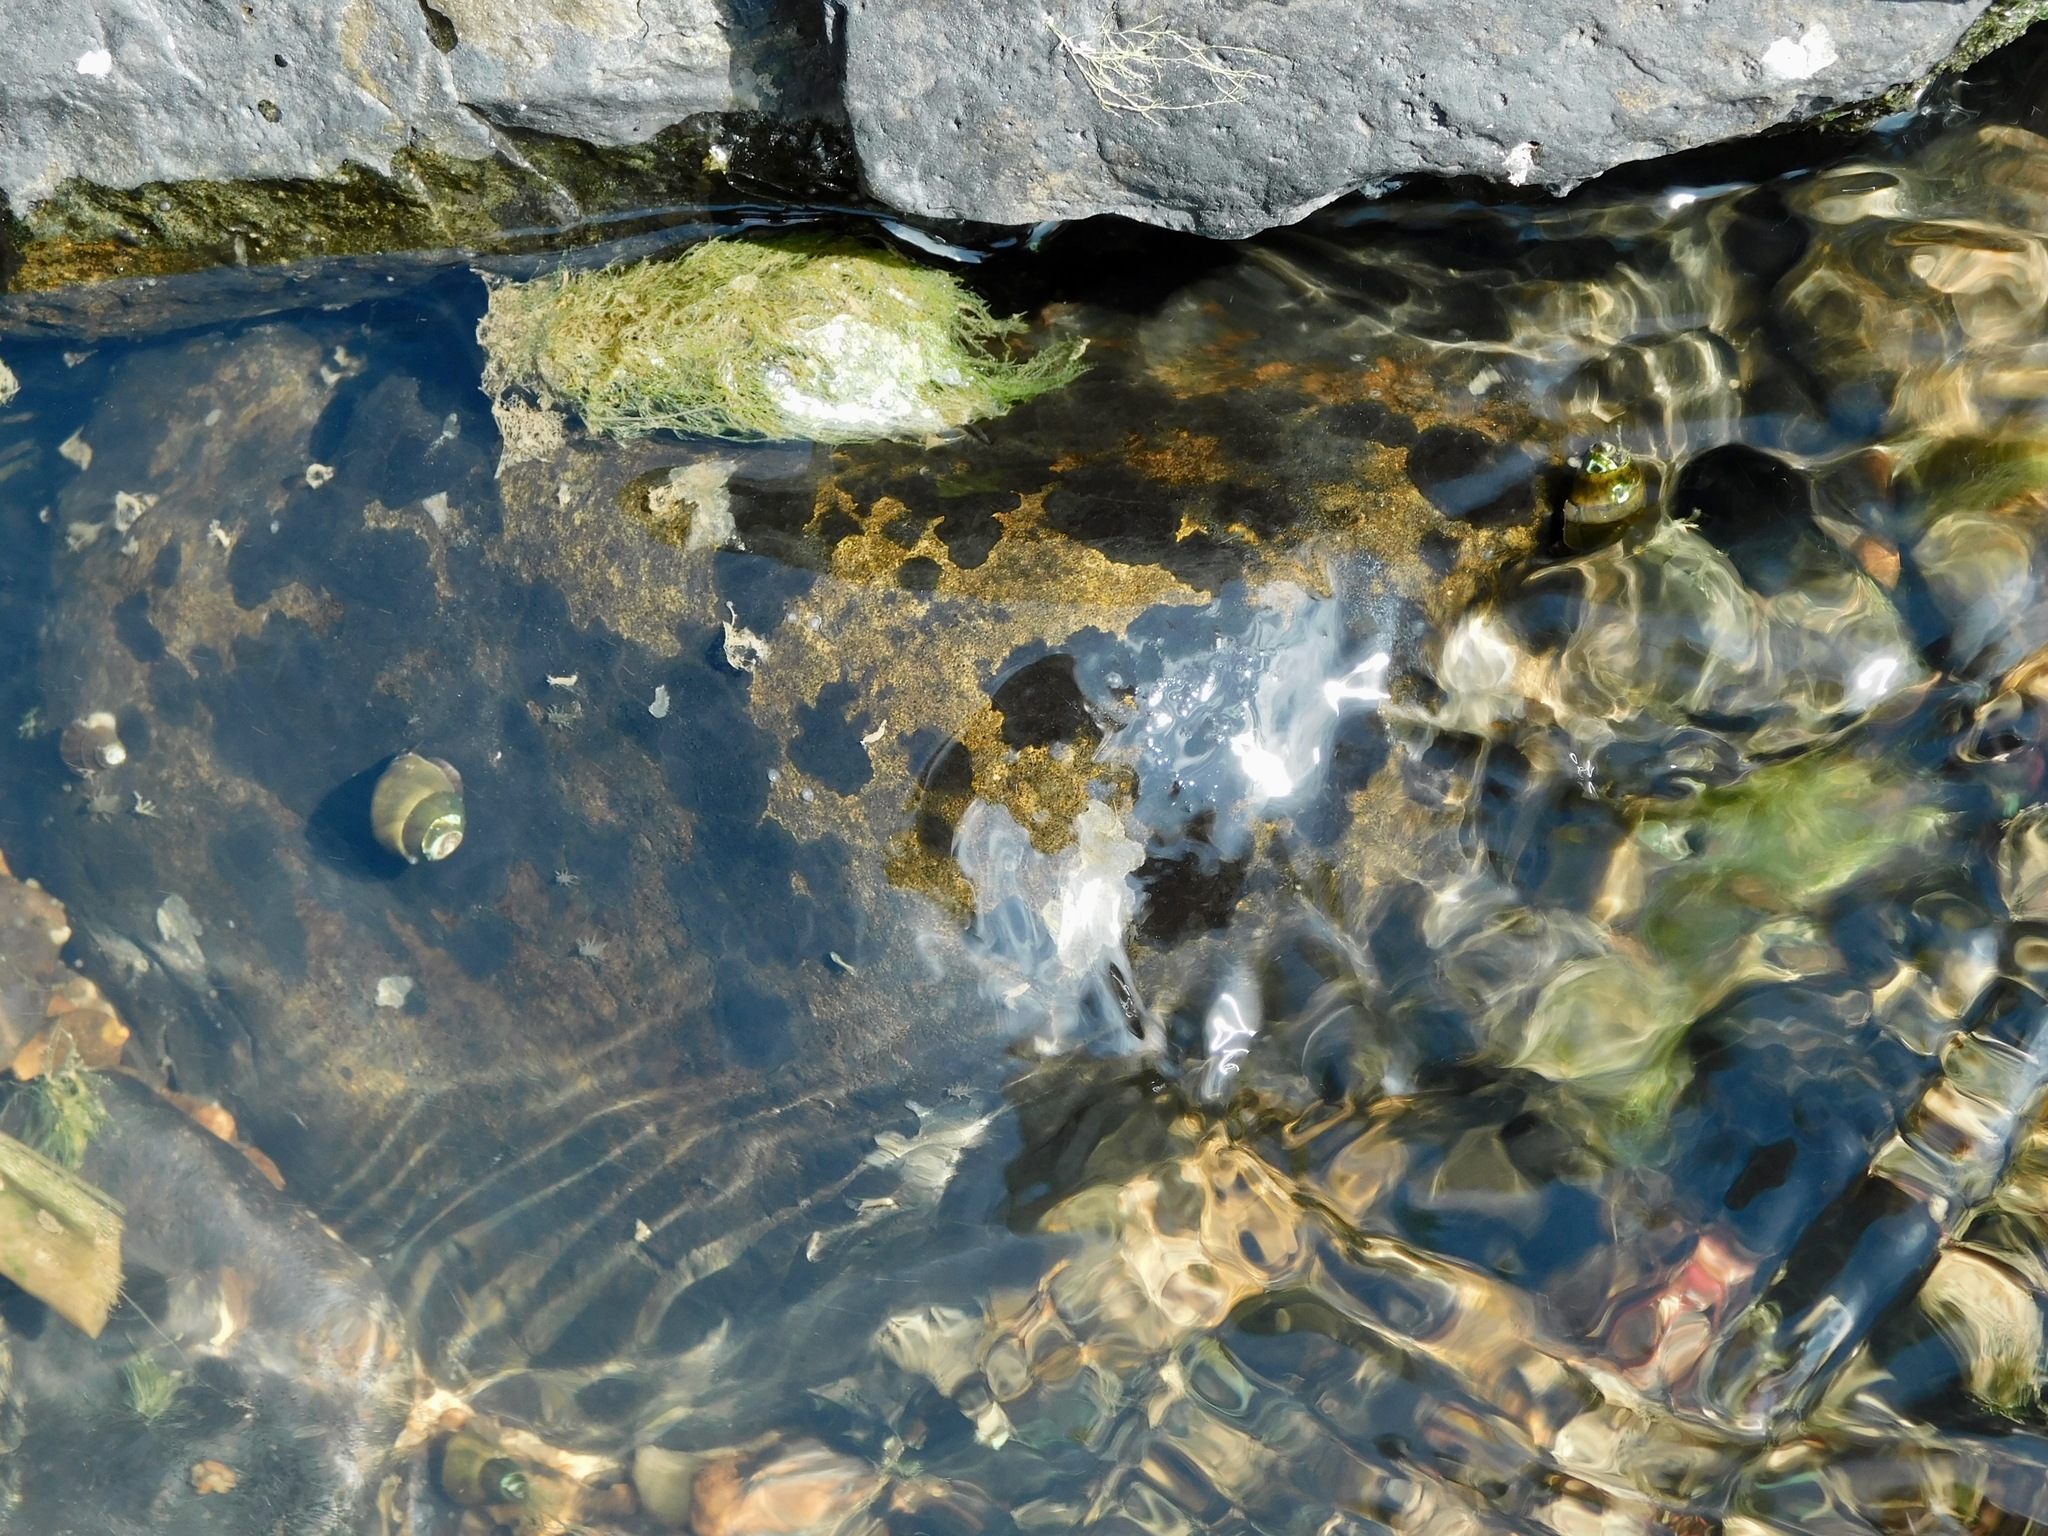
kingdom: Fungi
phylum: Ascomycota
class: Eurotiomycetes
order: Verrucariales
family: Verrucariaceae
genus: Wahlenbergiella
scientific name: Wahlenbergiella mucosa
